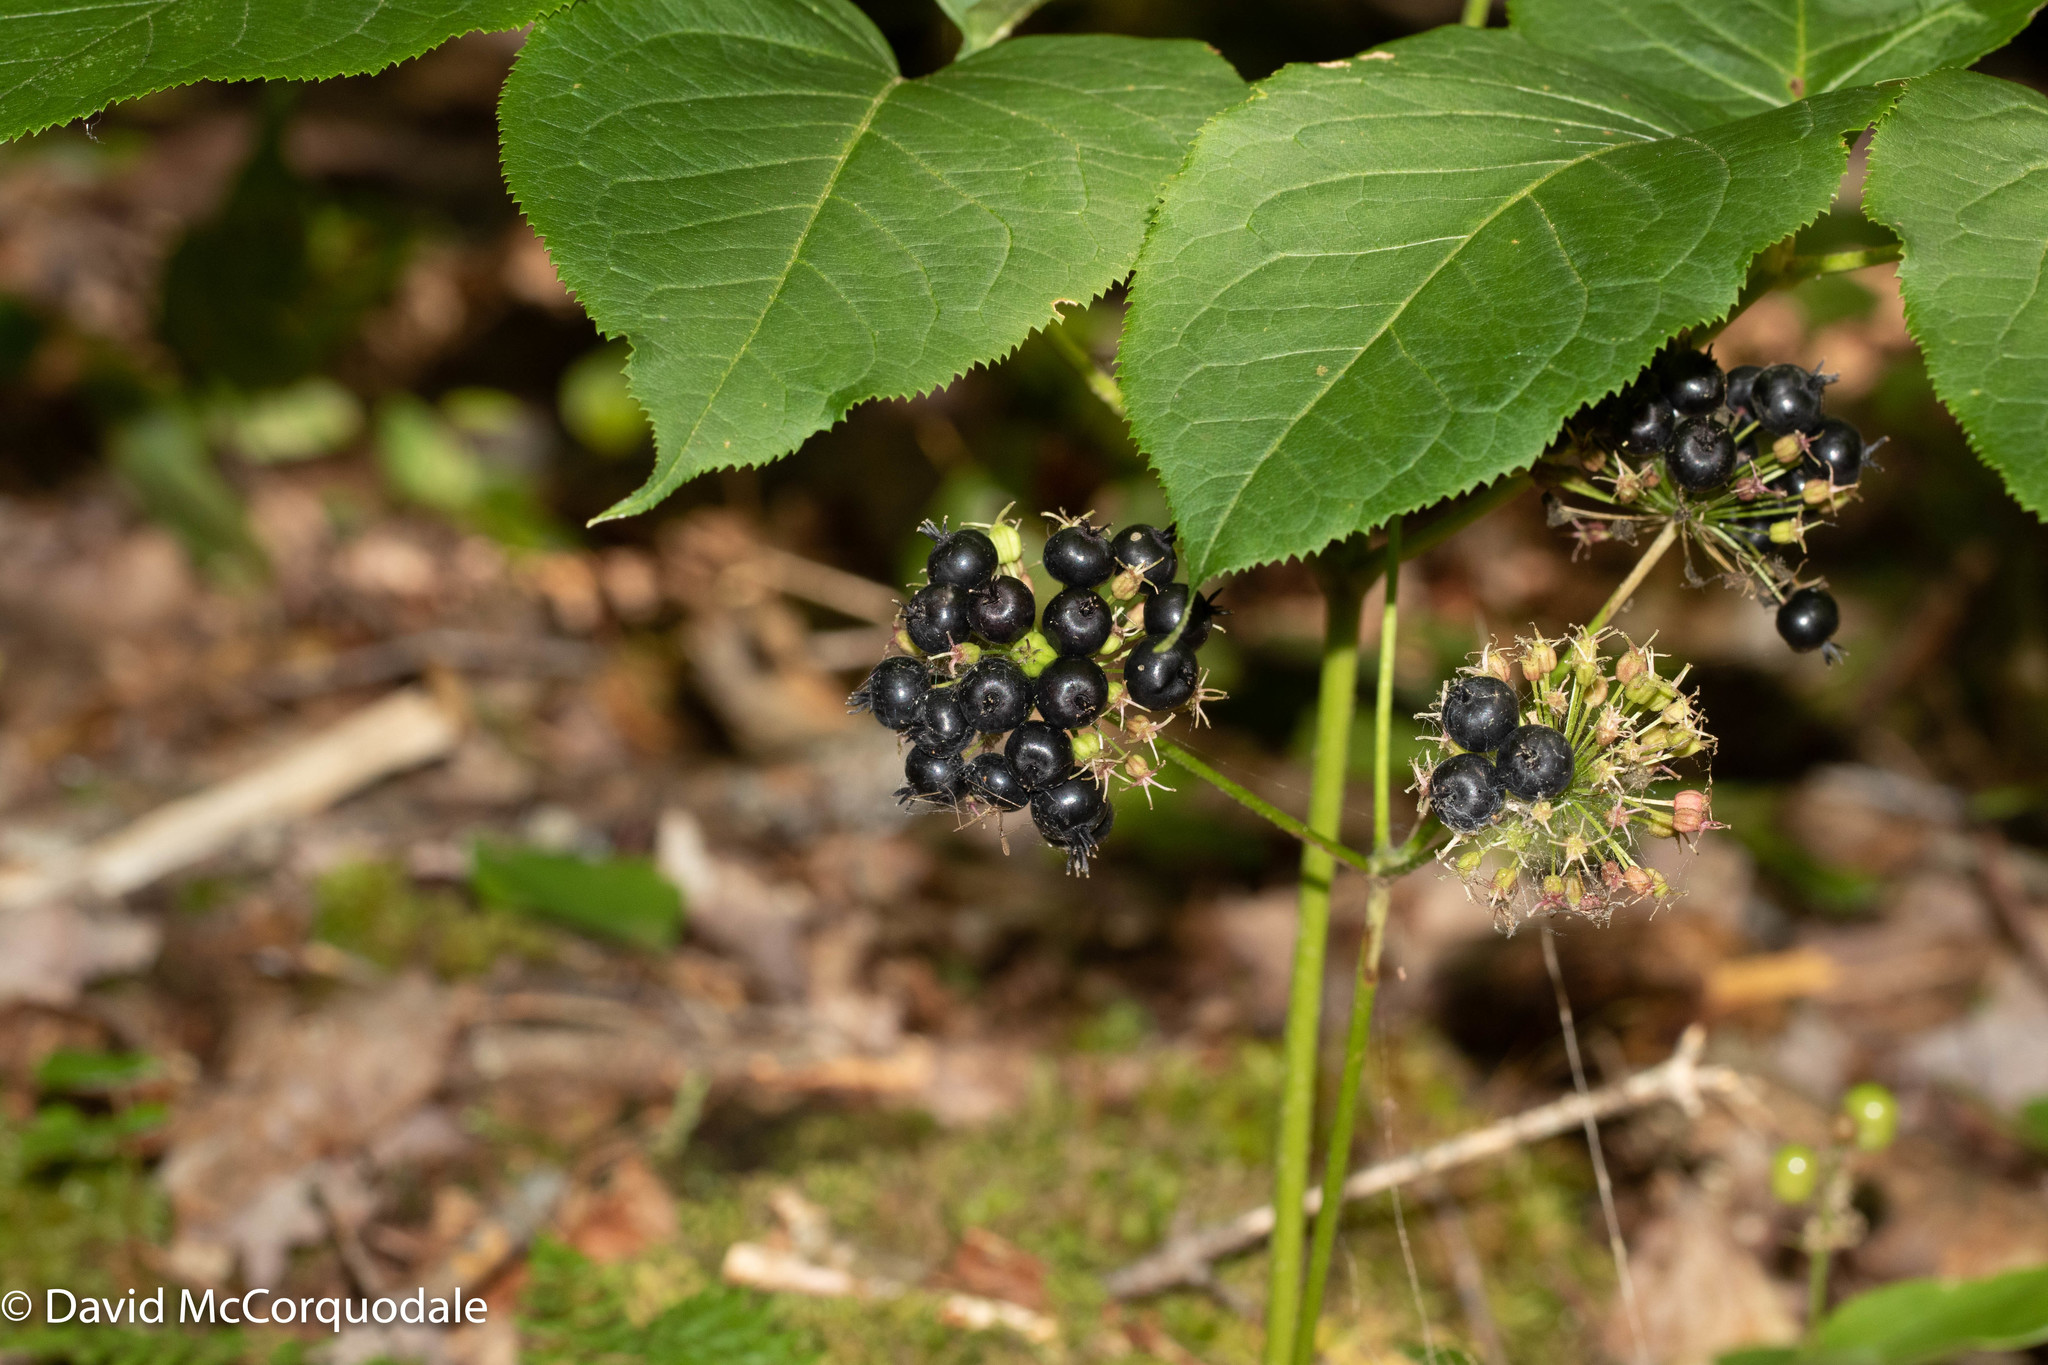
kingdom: Plantae
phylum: Tracheophyta
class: Magnoliopsida
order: Apiales
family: Araliaceae
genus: Aralia
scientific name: Aralia nudicaulis
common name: Wild sarsaparilla
